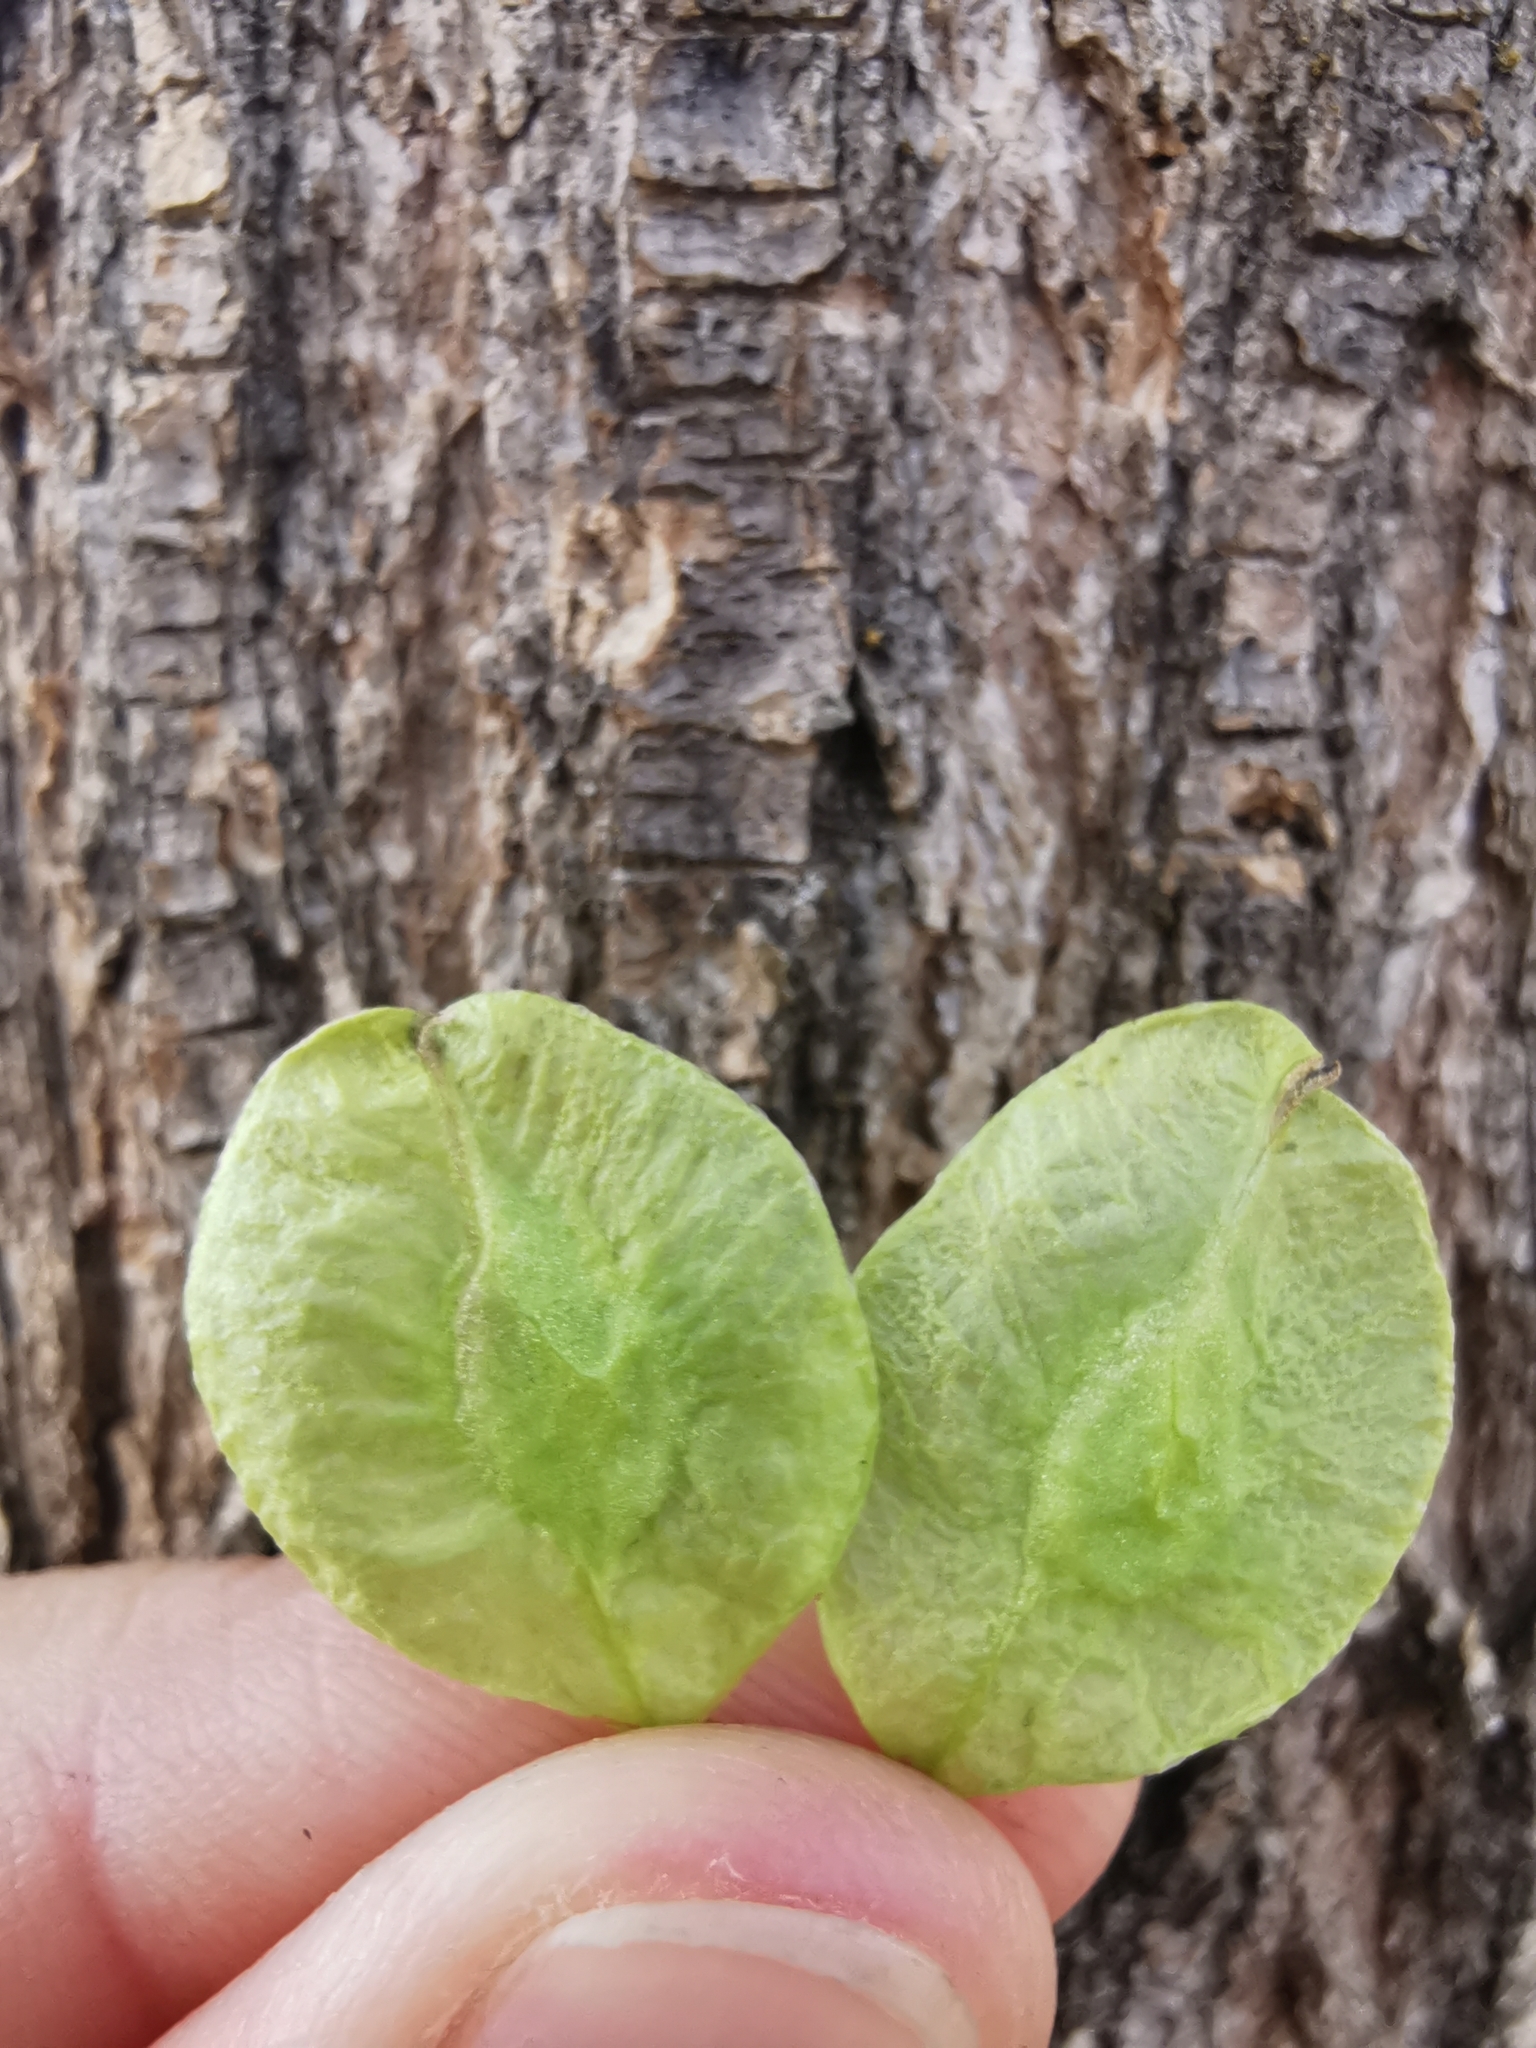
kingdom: Plantae
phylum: Tracheophyta
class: Magnoliopsida
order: Rosales
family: Ulmaceae
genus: Ulmus
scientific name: Ulmus glabra
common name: Wych elm
